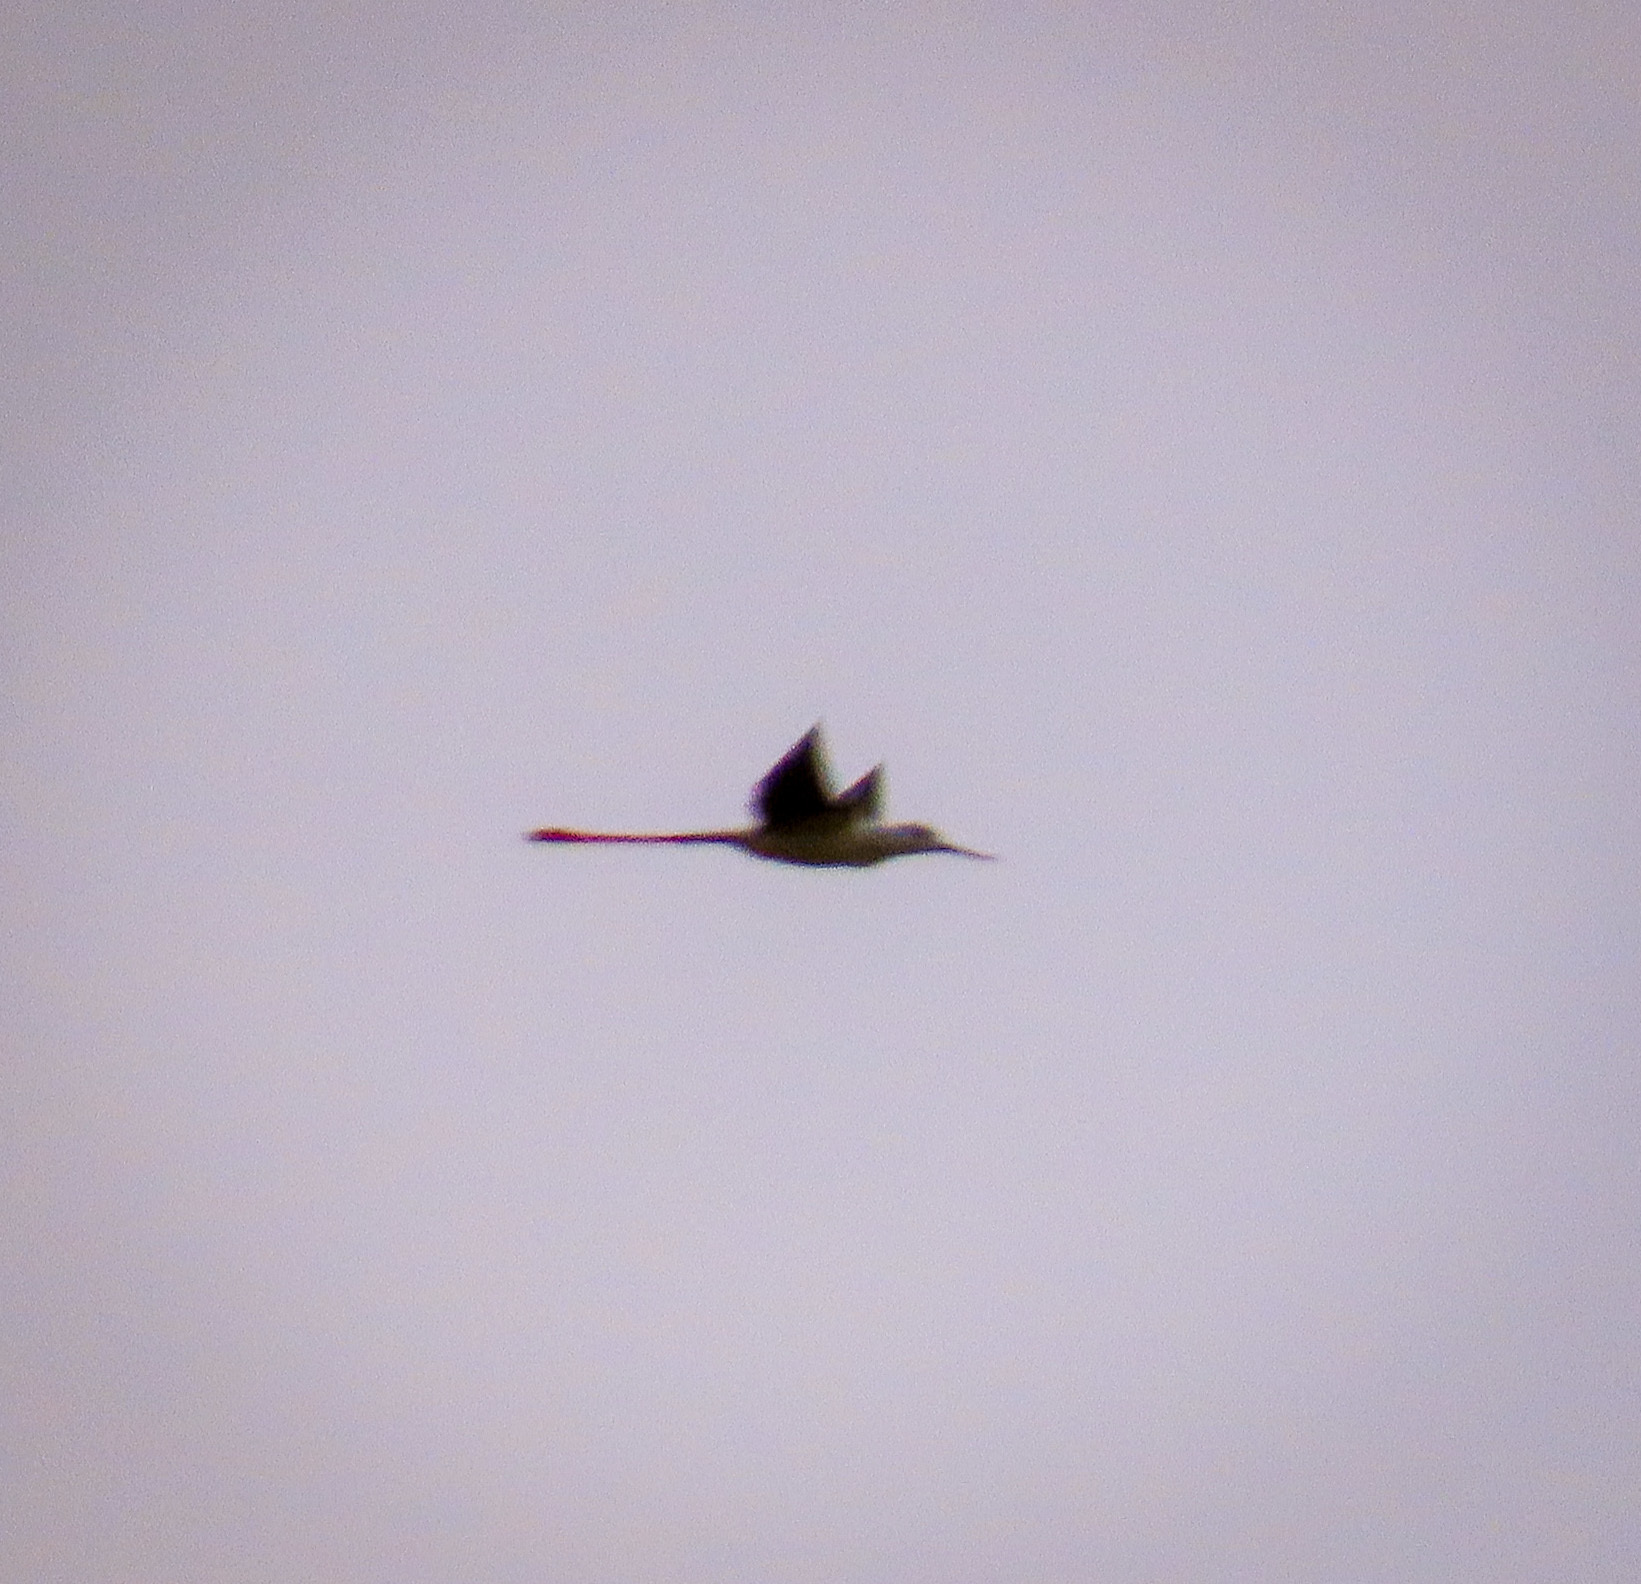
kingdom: Animalia
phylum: Chordata
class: Aves
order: Charadriiformes
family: Recurvirostridae
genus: Himantopus
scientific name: Himantopus himantopus
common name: Black-winged stilt
